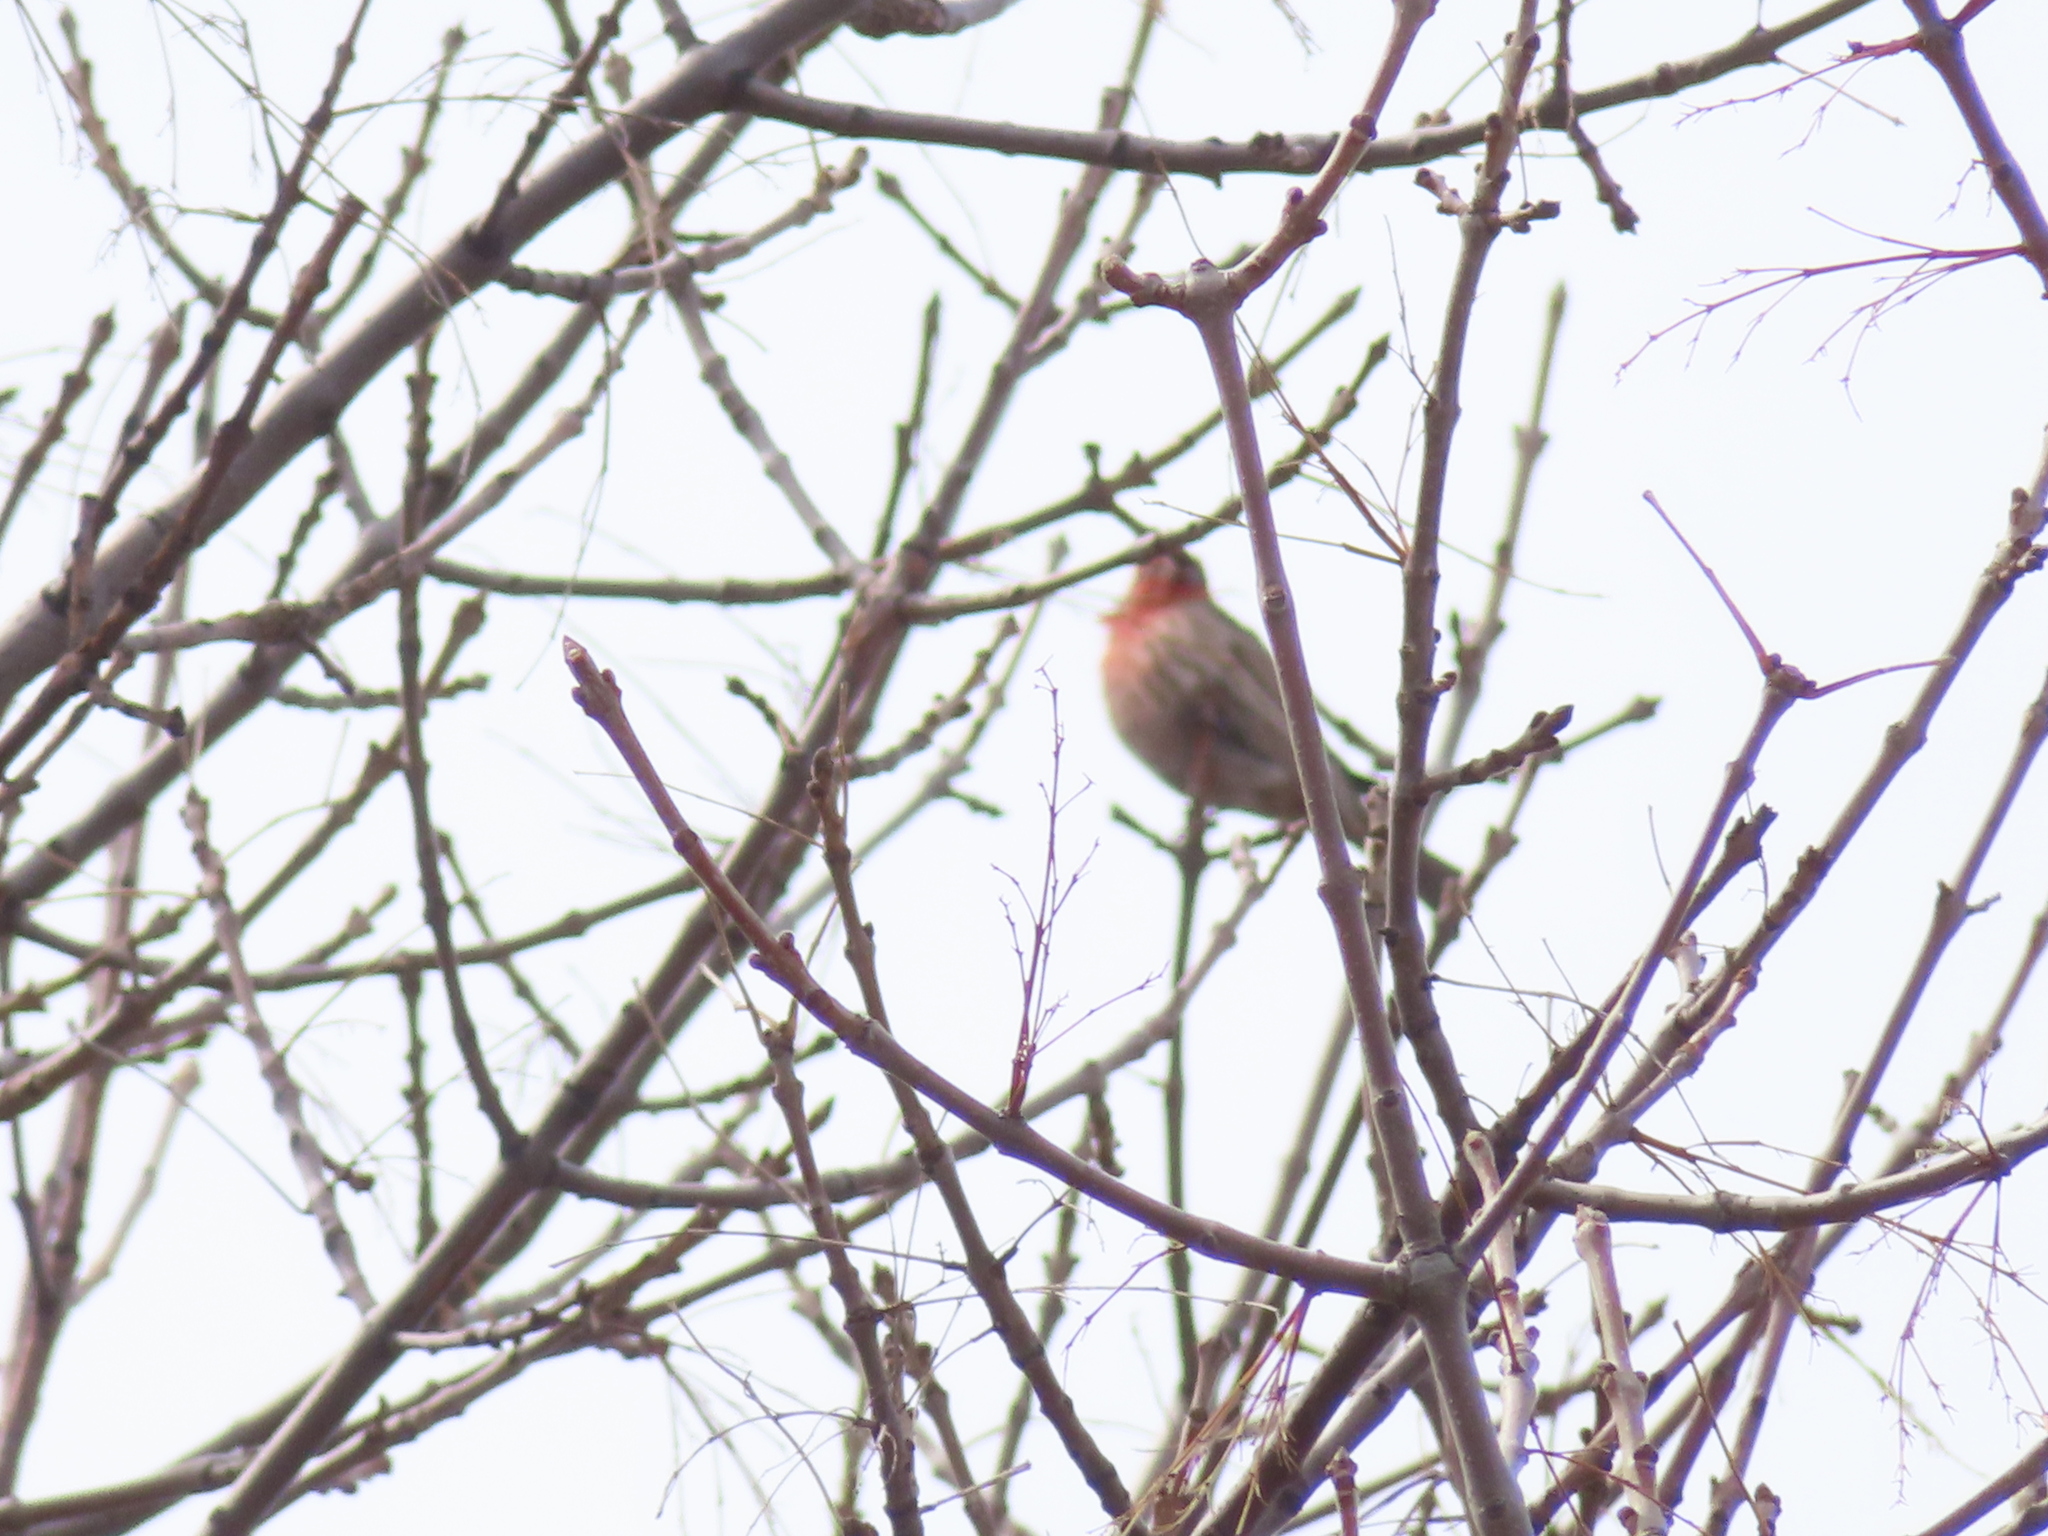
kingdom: Animalia
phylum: Chordata
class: Aves
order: Passeriformes
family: Fringillidae
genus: Haemorhous
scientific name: Haemorhous mexicanus
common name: House finch
